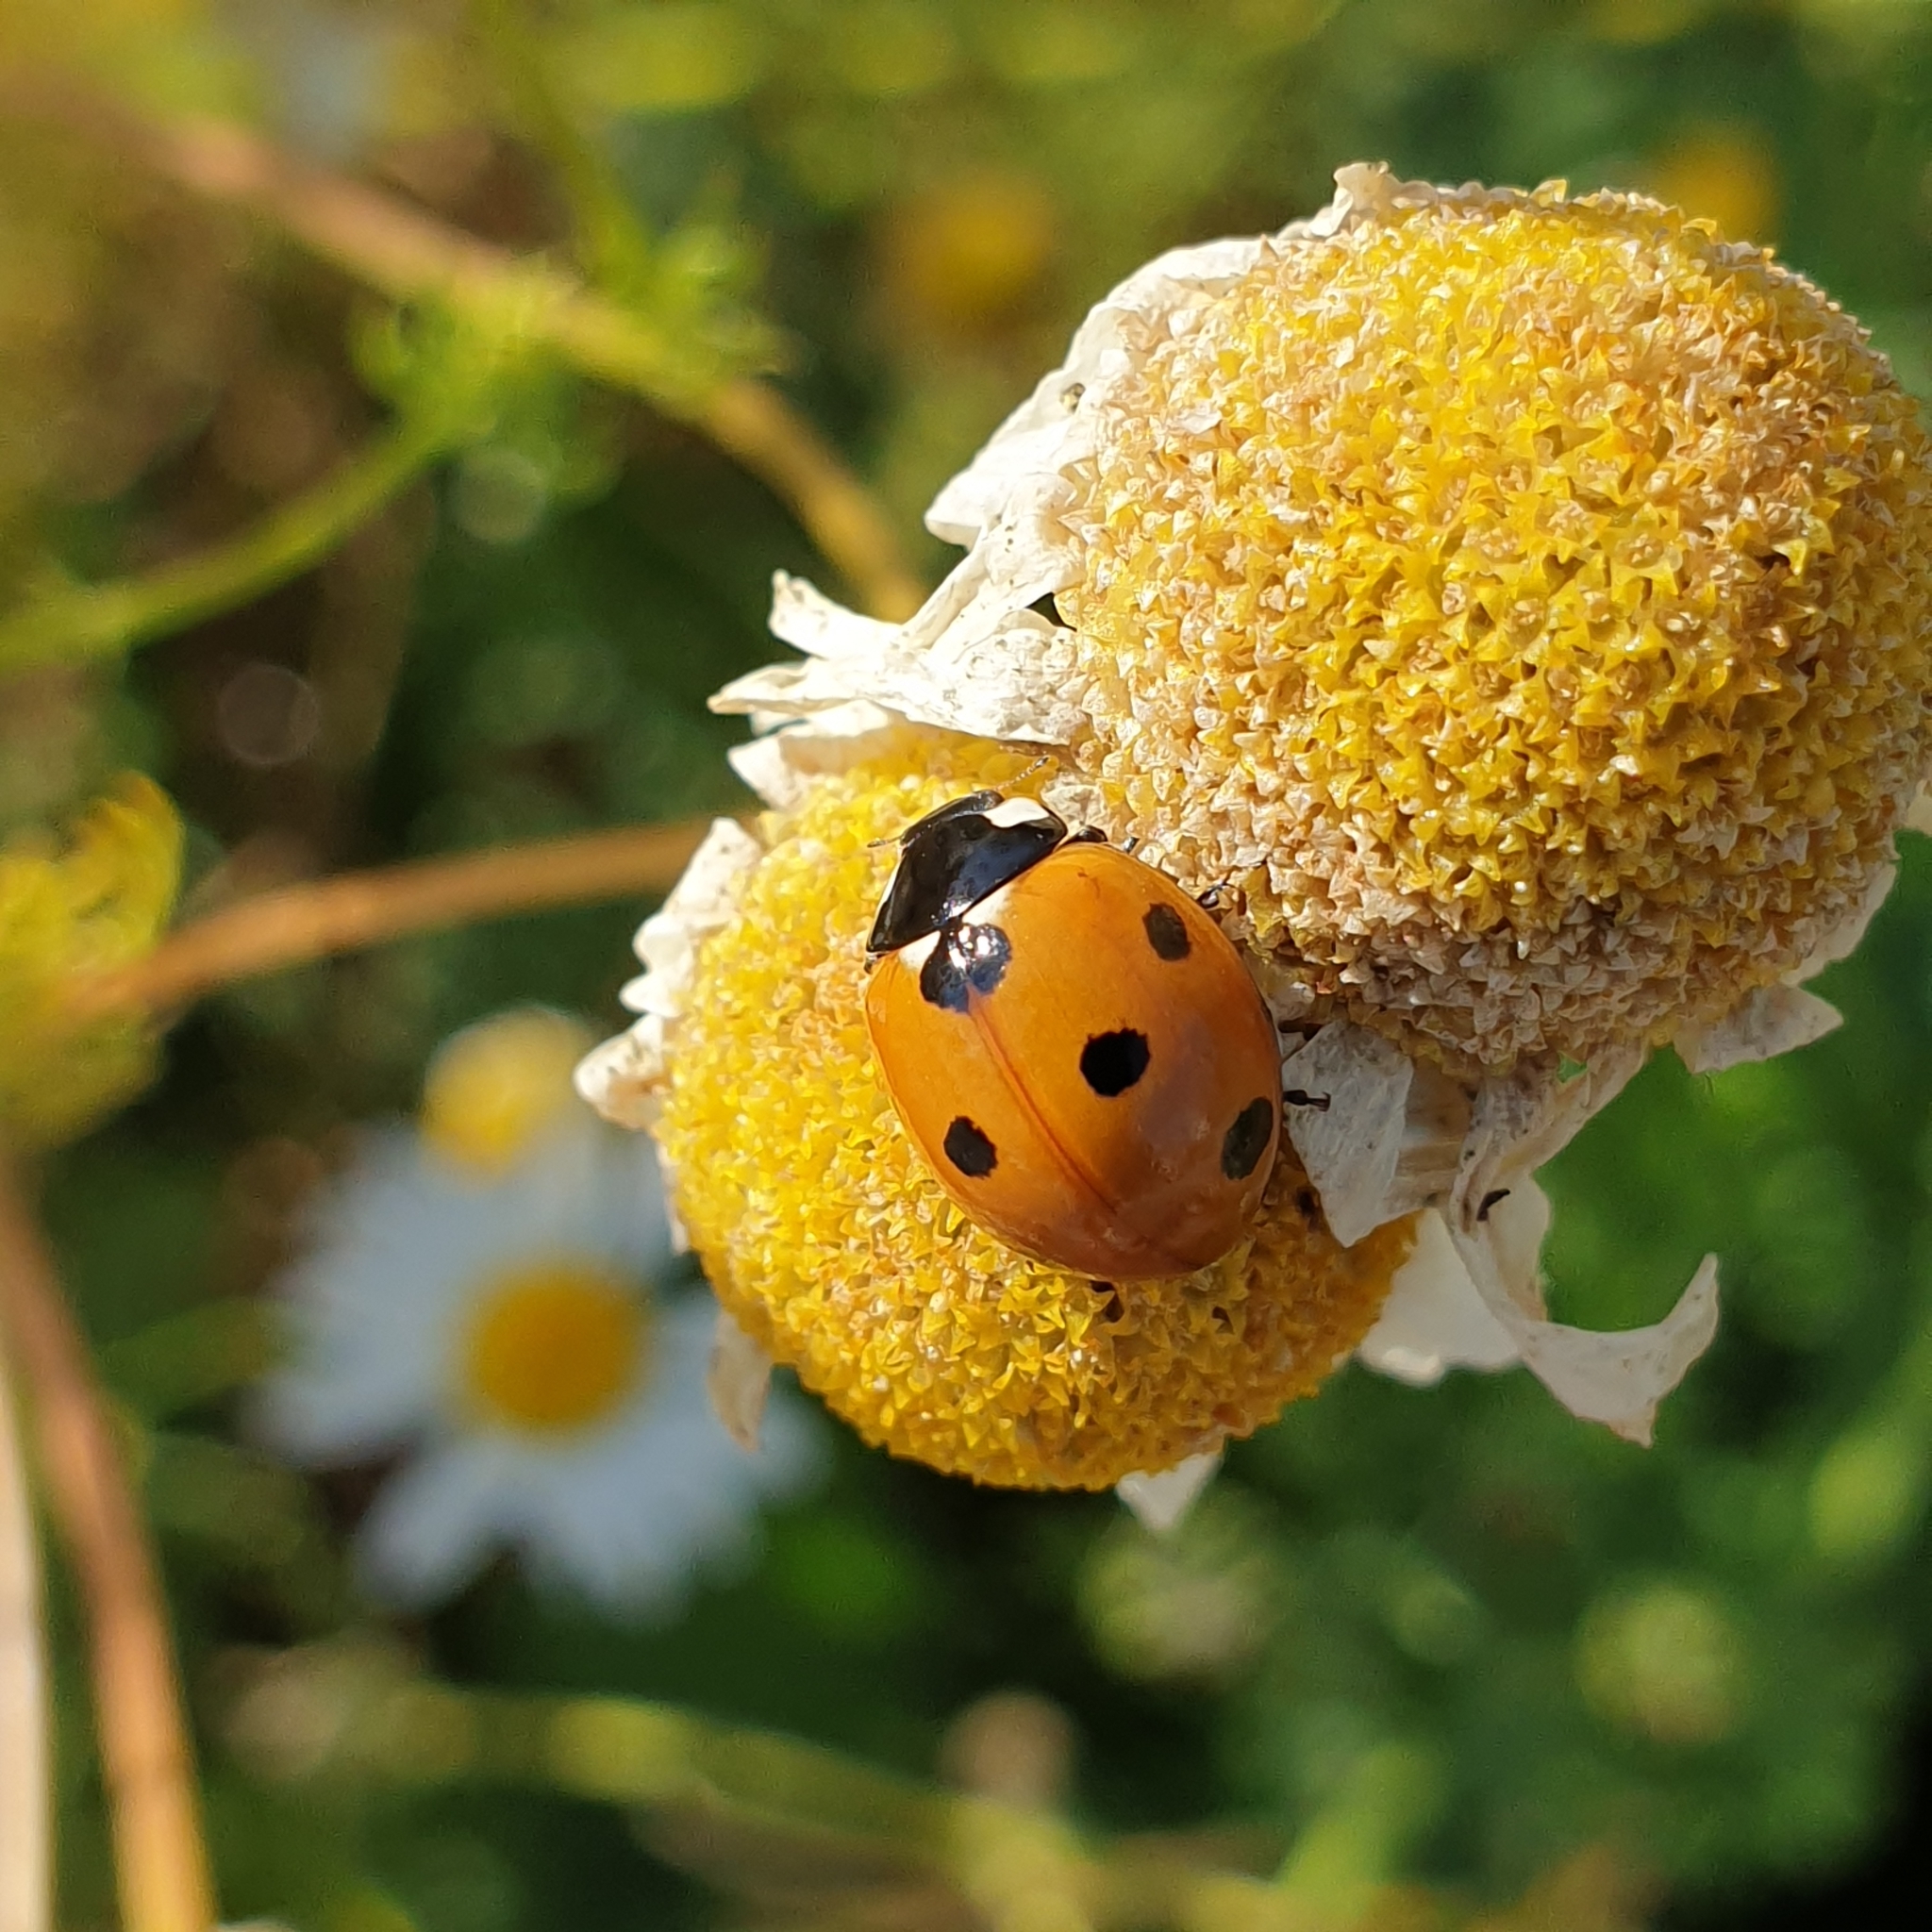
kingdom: Animalia
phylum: Arthropoda
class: Insecta
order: Coleoptera
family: Coccinellidae
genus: Coccinella
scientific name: Coccinella septempunctata
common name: Sevenspotted lady beetle
